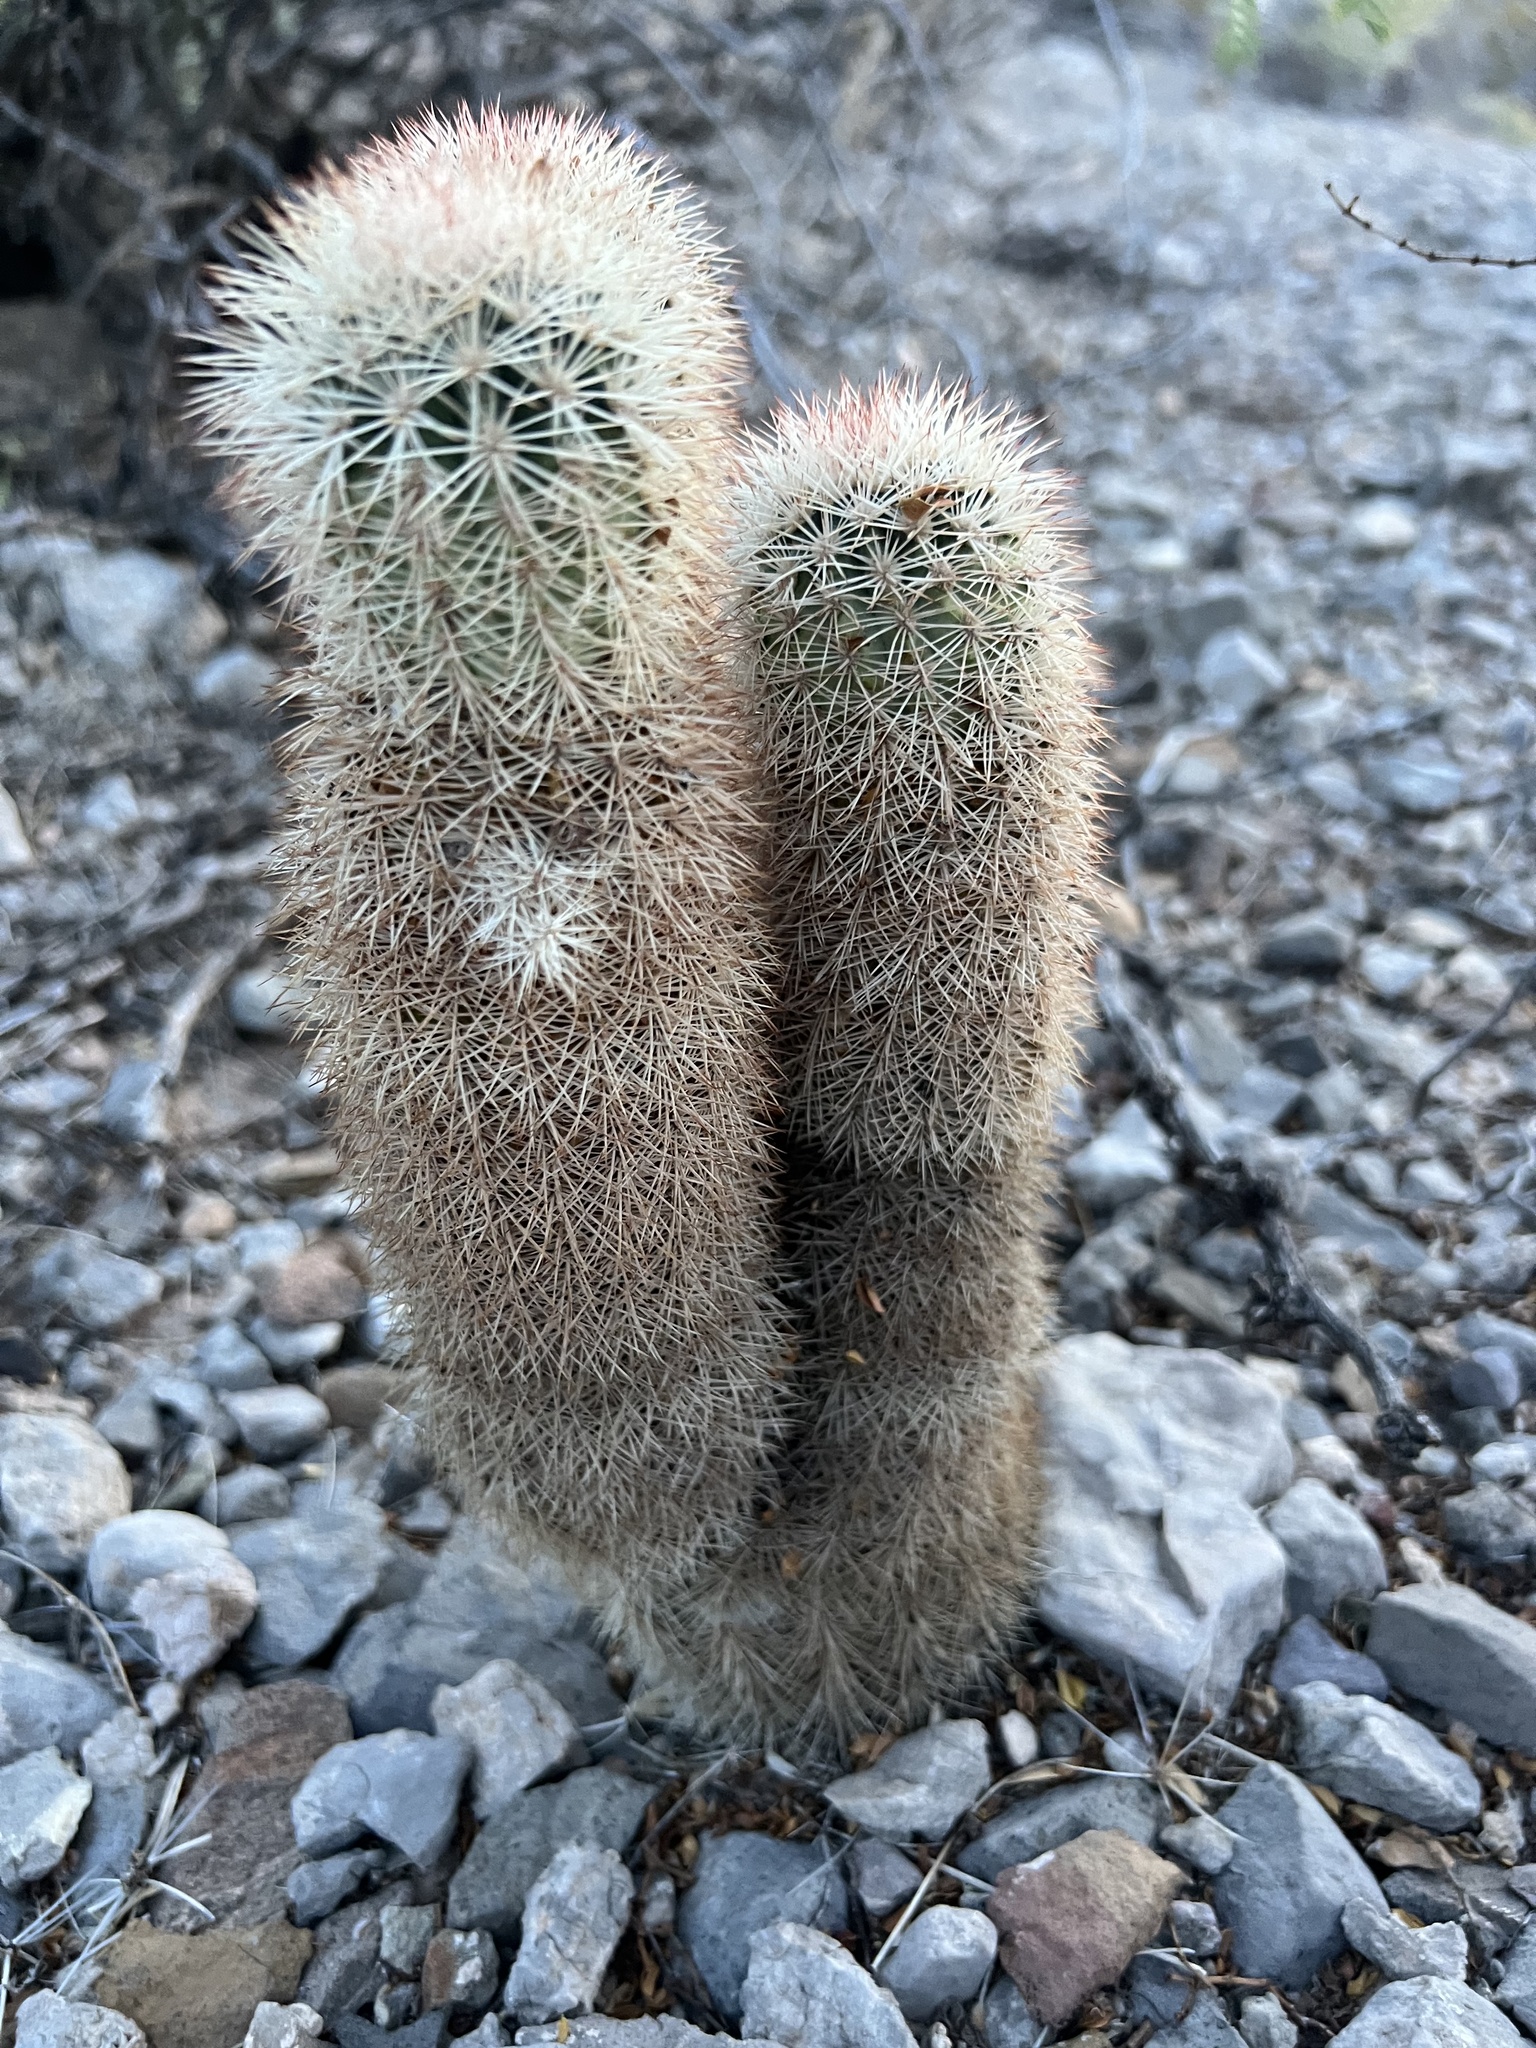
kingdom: Plantae
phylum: Tracheophyta
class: Magnoliopsida
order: Caryophyllales
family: Cactaceae
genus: Echinocereus
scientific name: Echinocereus dasyacanthus
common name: Spiny hedgehog cactus
